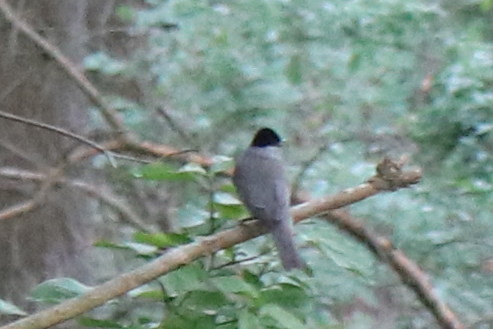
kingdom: Animalia
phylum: Chordata
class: Aves
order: Passeriformes
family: Sylviidae
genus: Sylvia
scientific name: Sylvia atricapilla
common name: Eurasian blackcap
